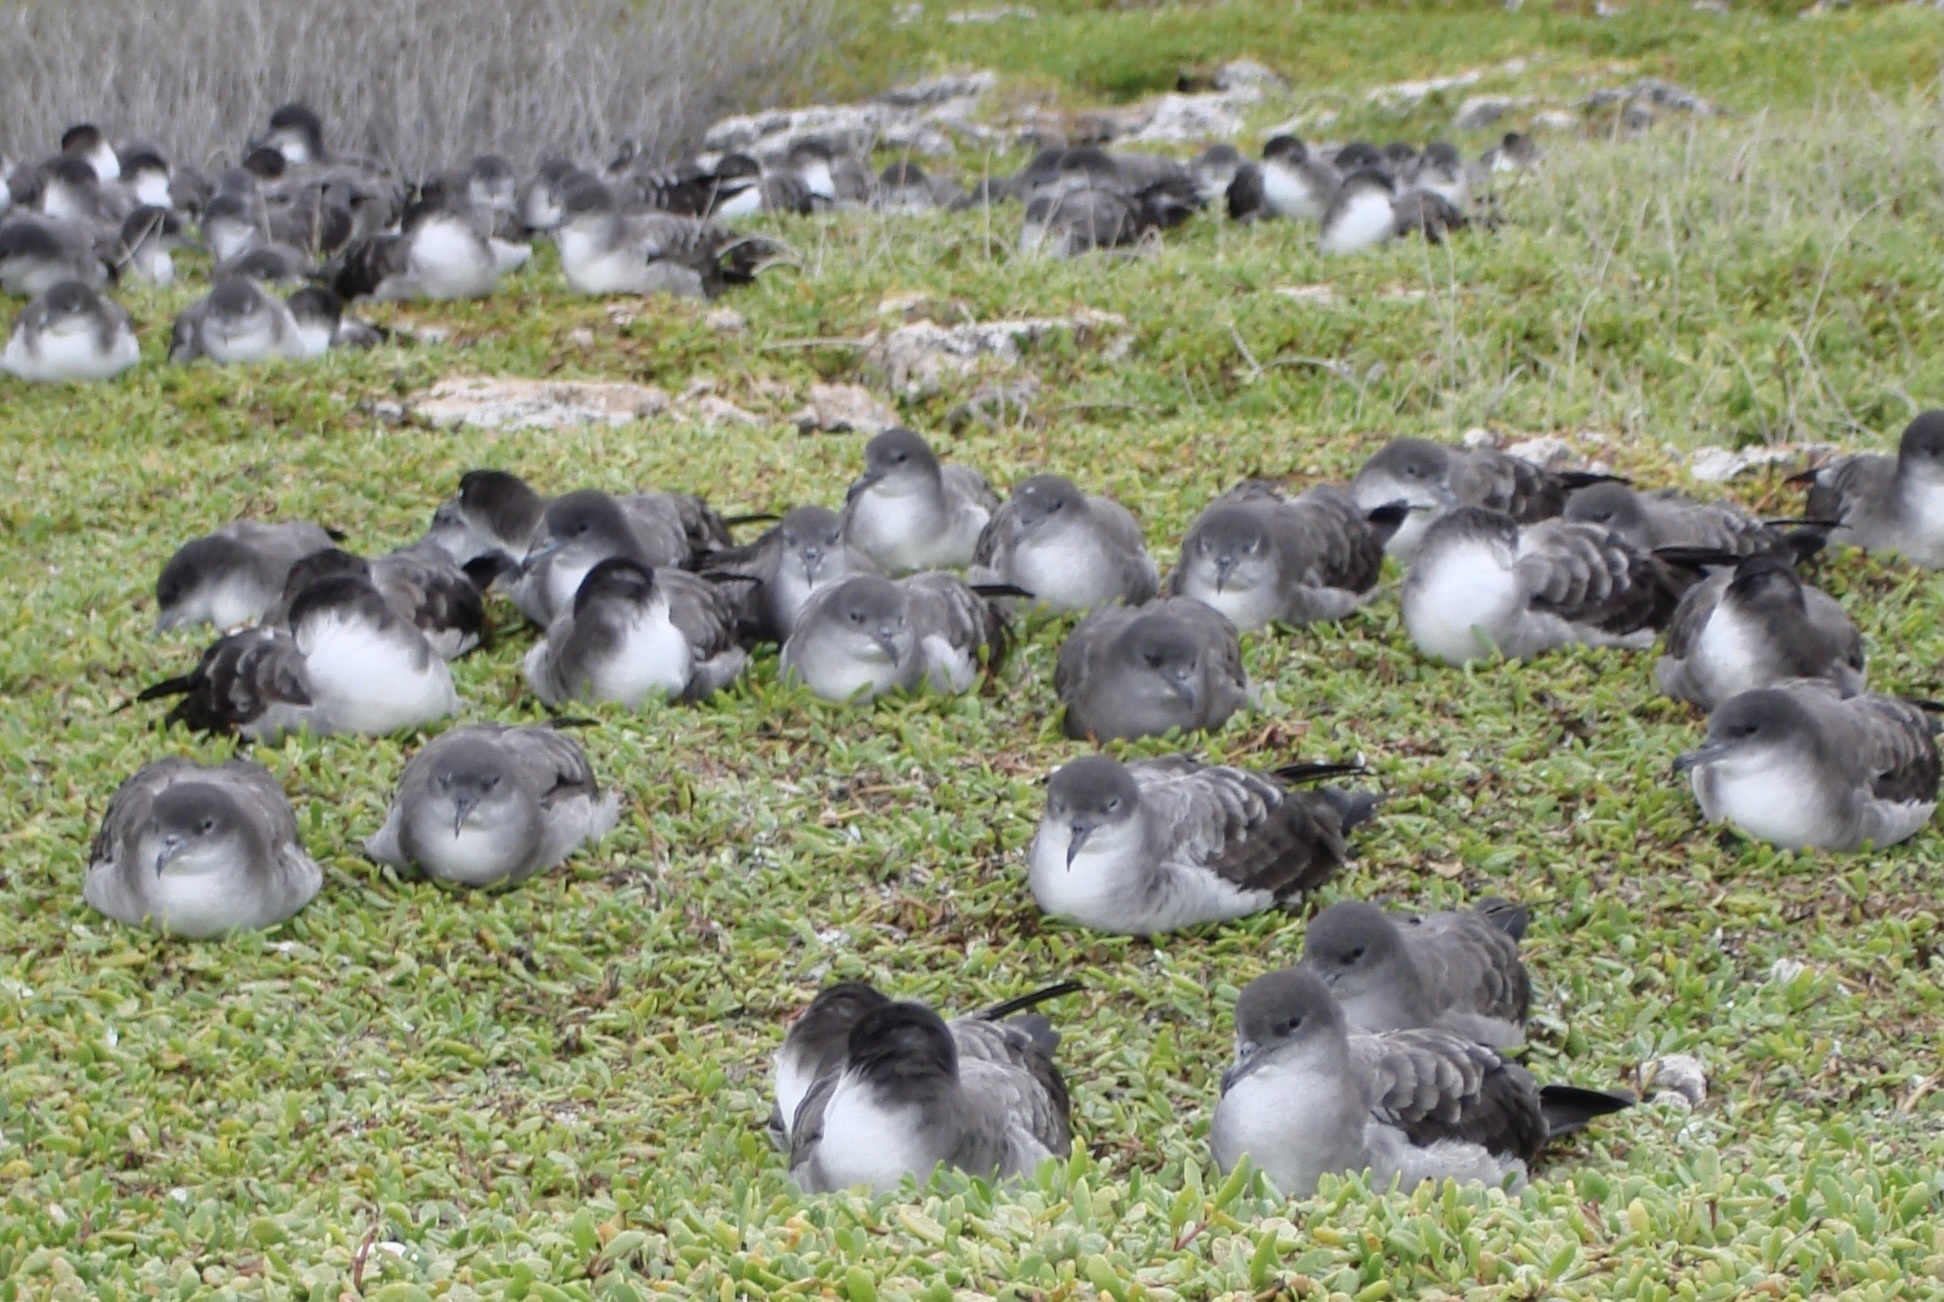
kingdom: Animalia
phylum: Chordata
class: Aves
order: Procellariiformes
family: Procellariidae
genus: Puffinus
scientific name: Puffinus pacificus
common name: Wedge-tailed shearwater
